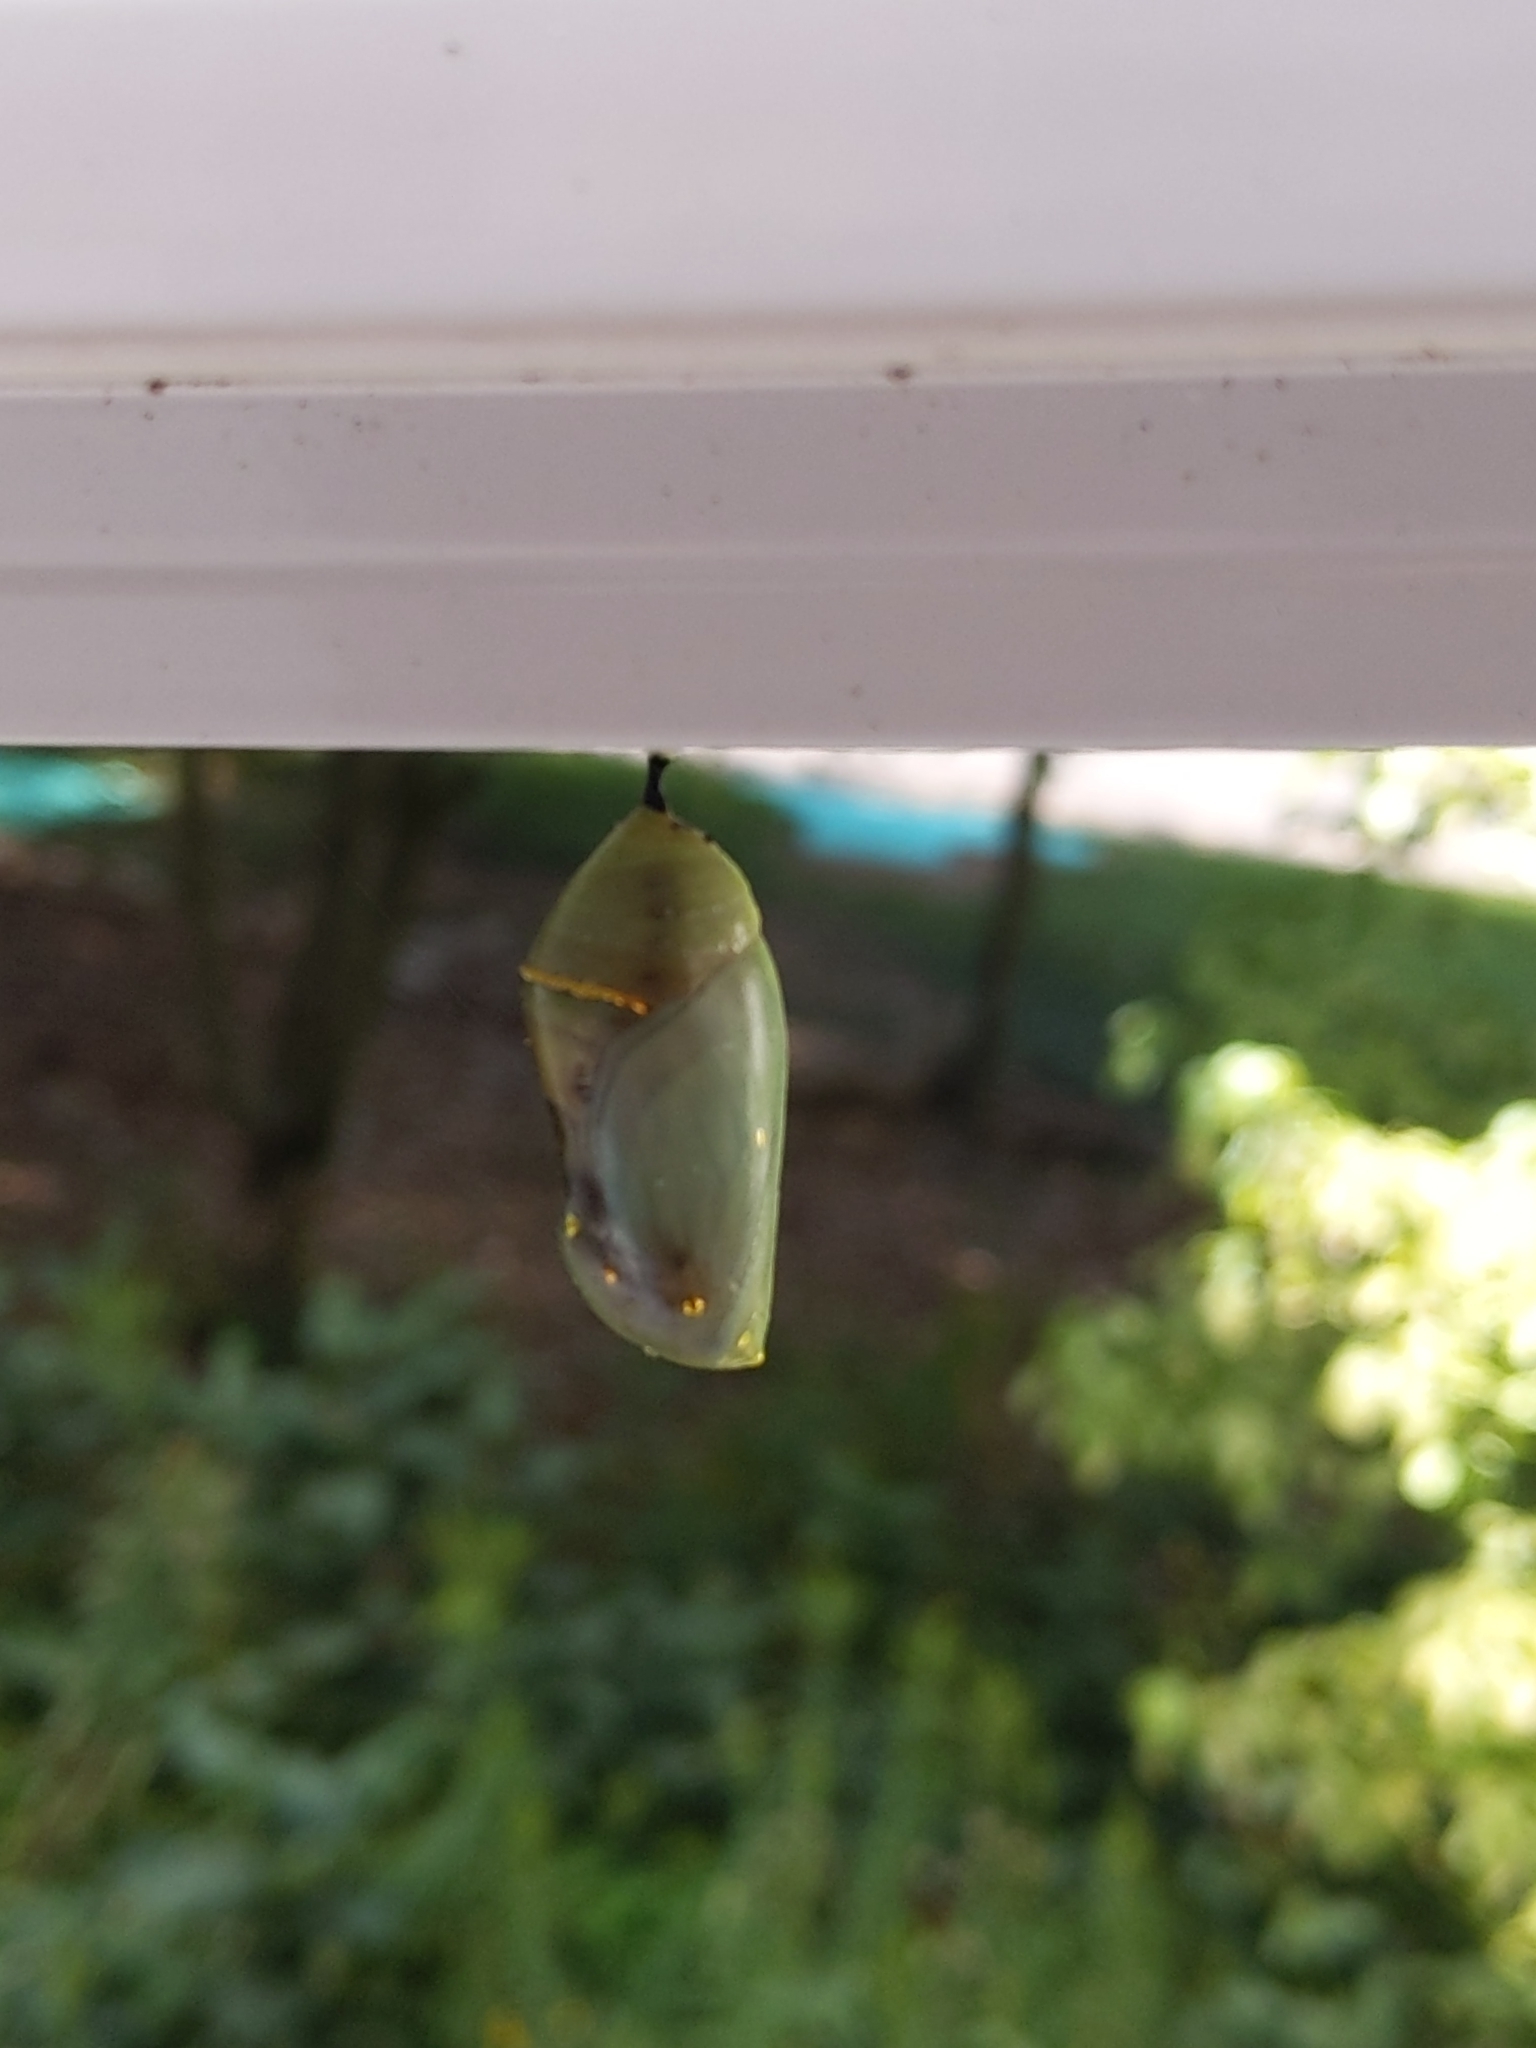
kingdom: Animalia
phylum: Arthropoda
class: Insecta
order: Lepidoptera
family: Nymphalidae
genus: Danaus
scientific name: Danaus plexippus
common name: Monarch
